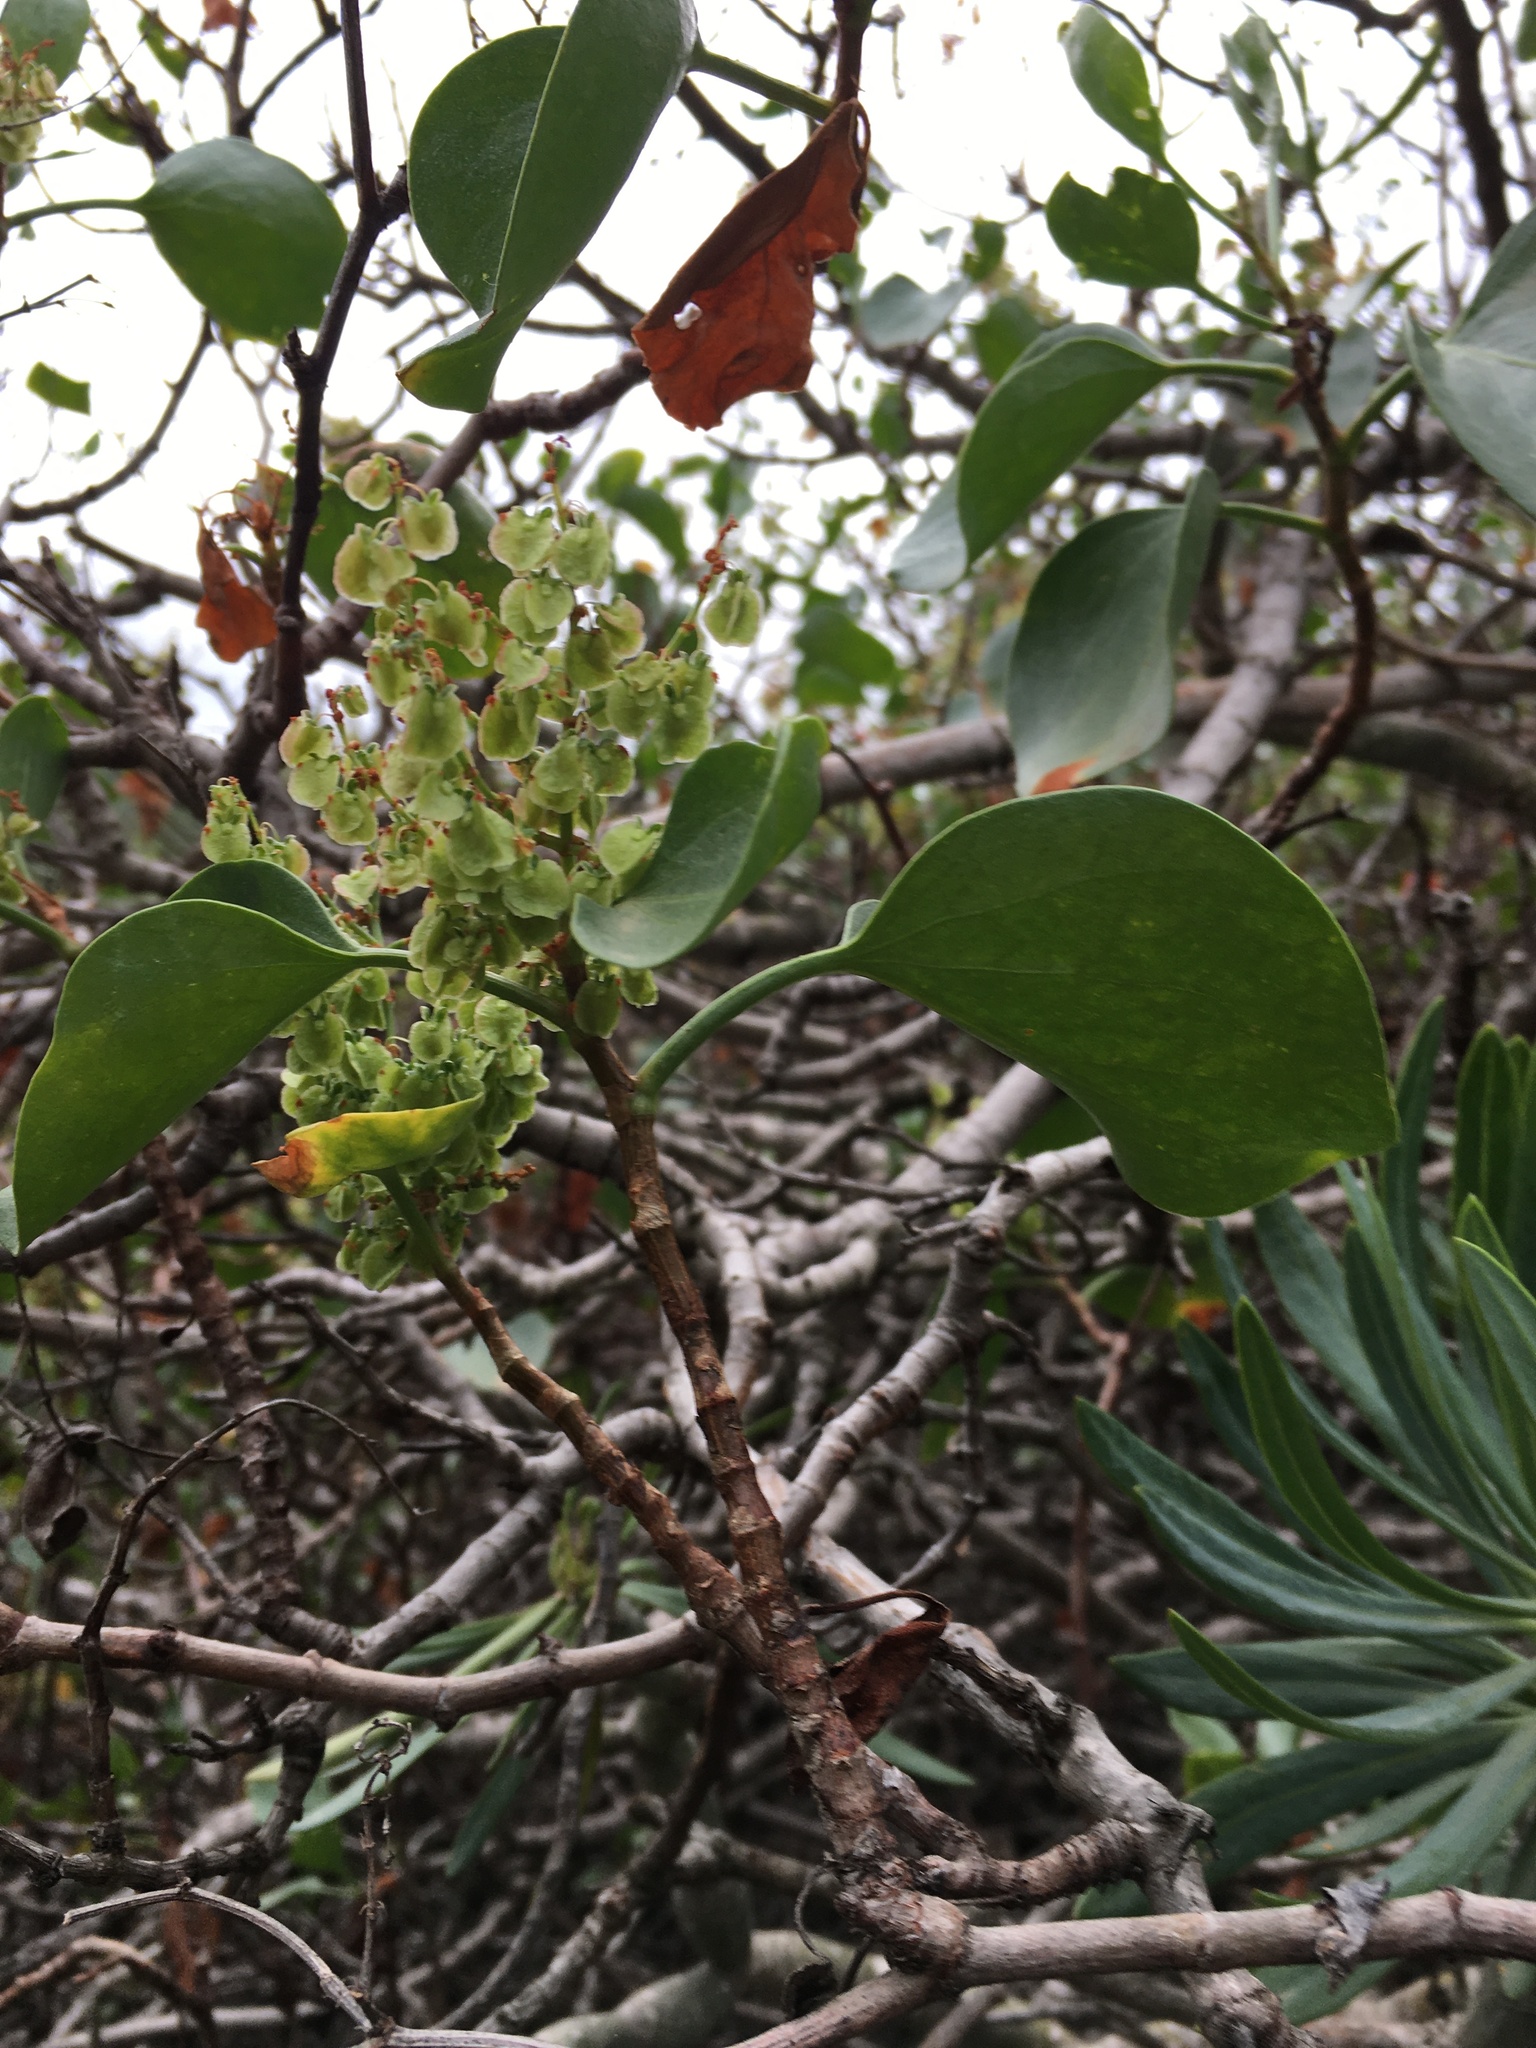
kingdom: Plantae
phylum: Tracheophyta
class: Magnoliopsida
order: Caryophyllales
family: Polygonaceae
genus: Rumex
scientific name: Rumex lunaria
